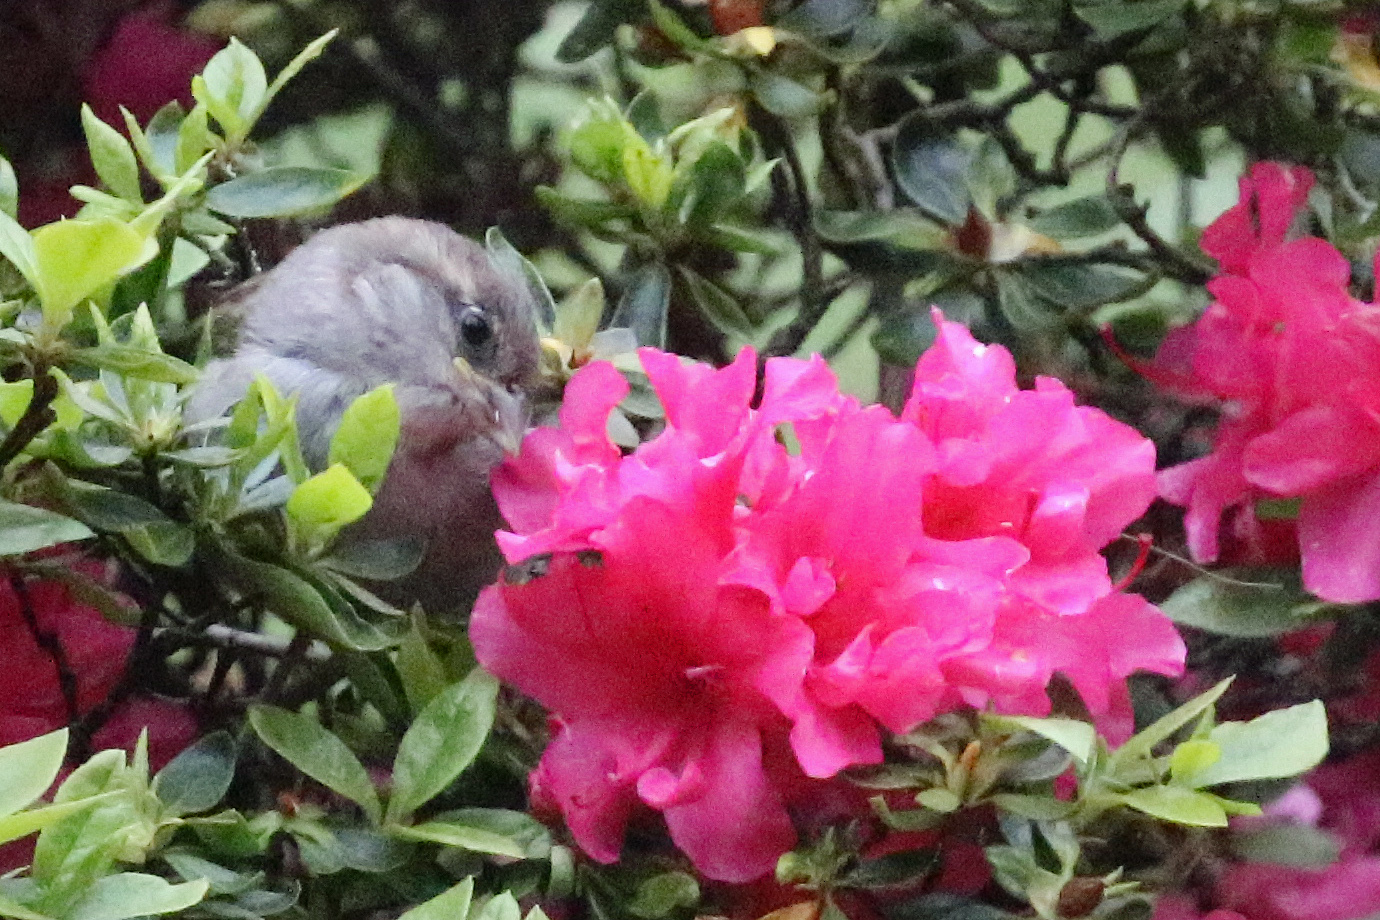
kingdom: Animalia
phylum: Chordata
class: Aves
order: Passeriformes
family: Passeridae
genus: Passer
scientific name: Passer domesticus
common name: House sparrow
